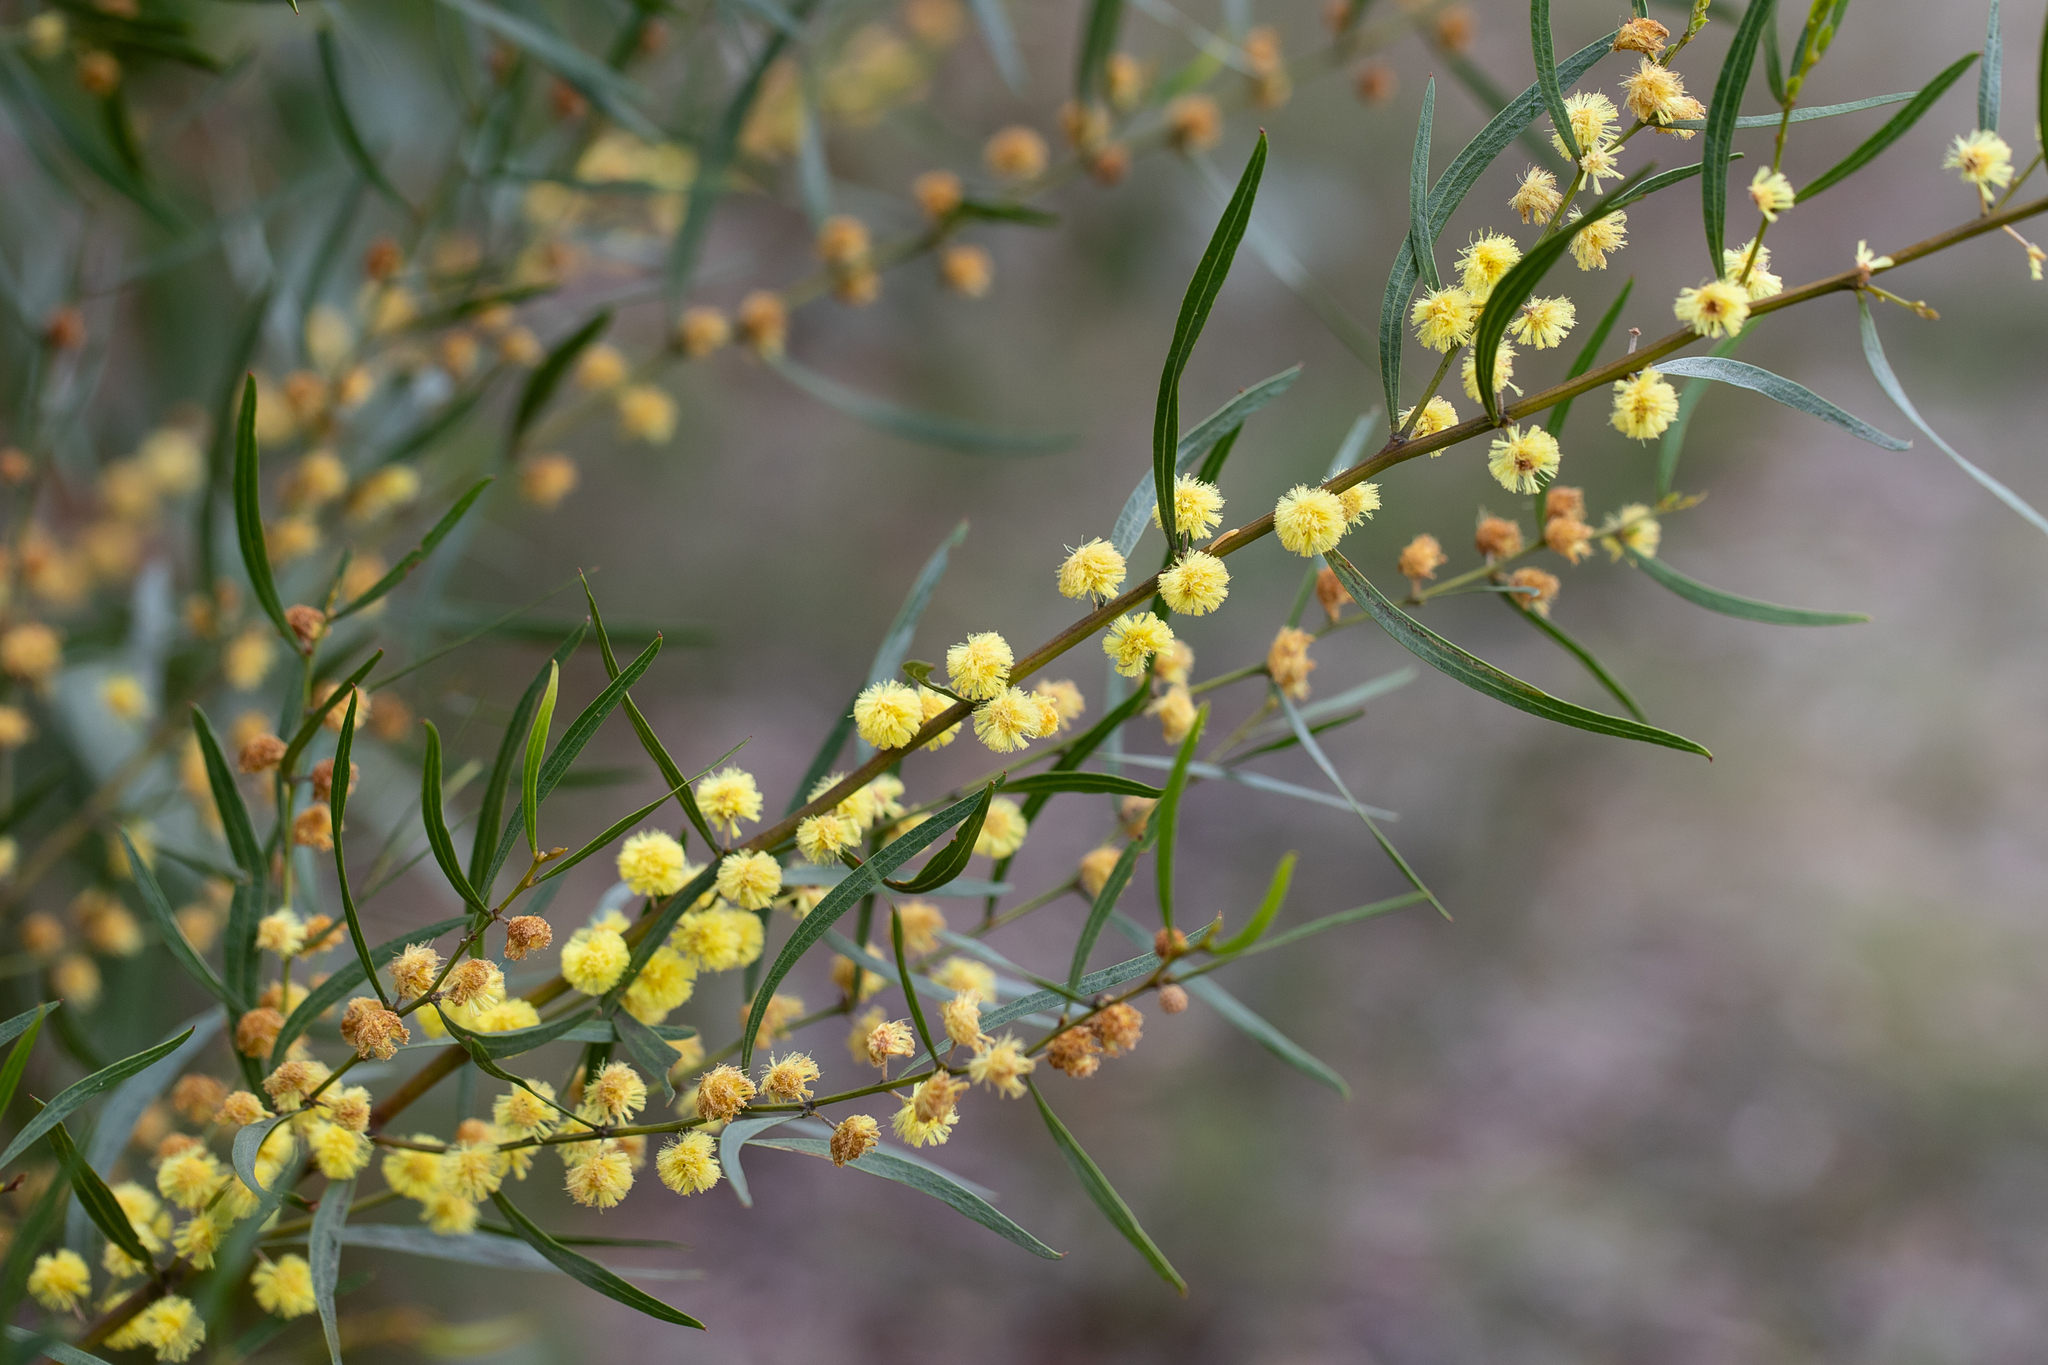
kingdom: Plantae
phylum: Tracheophyta
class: Magnoliopsida
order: Fabales
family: Fabaceae
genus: Acacia
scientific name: Acacia verniciflua
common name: Varnish wattle
